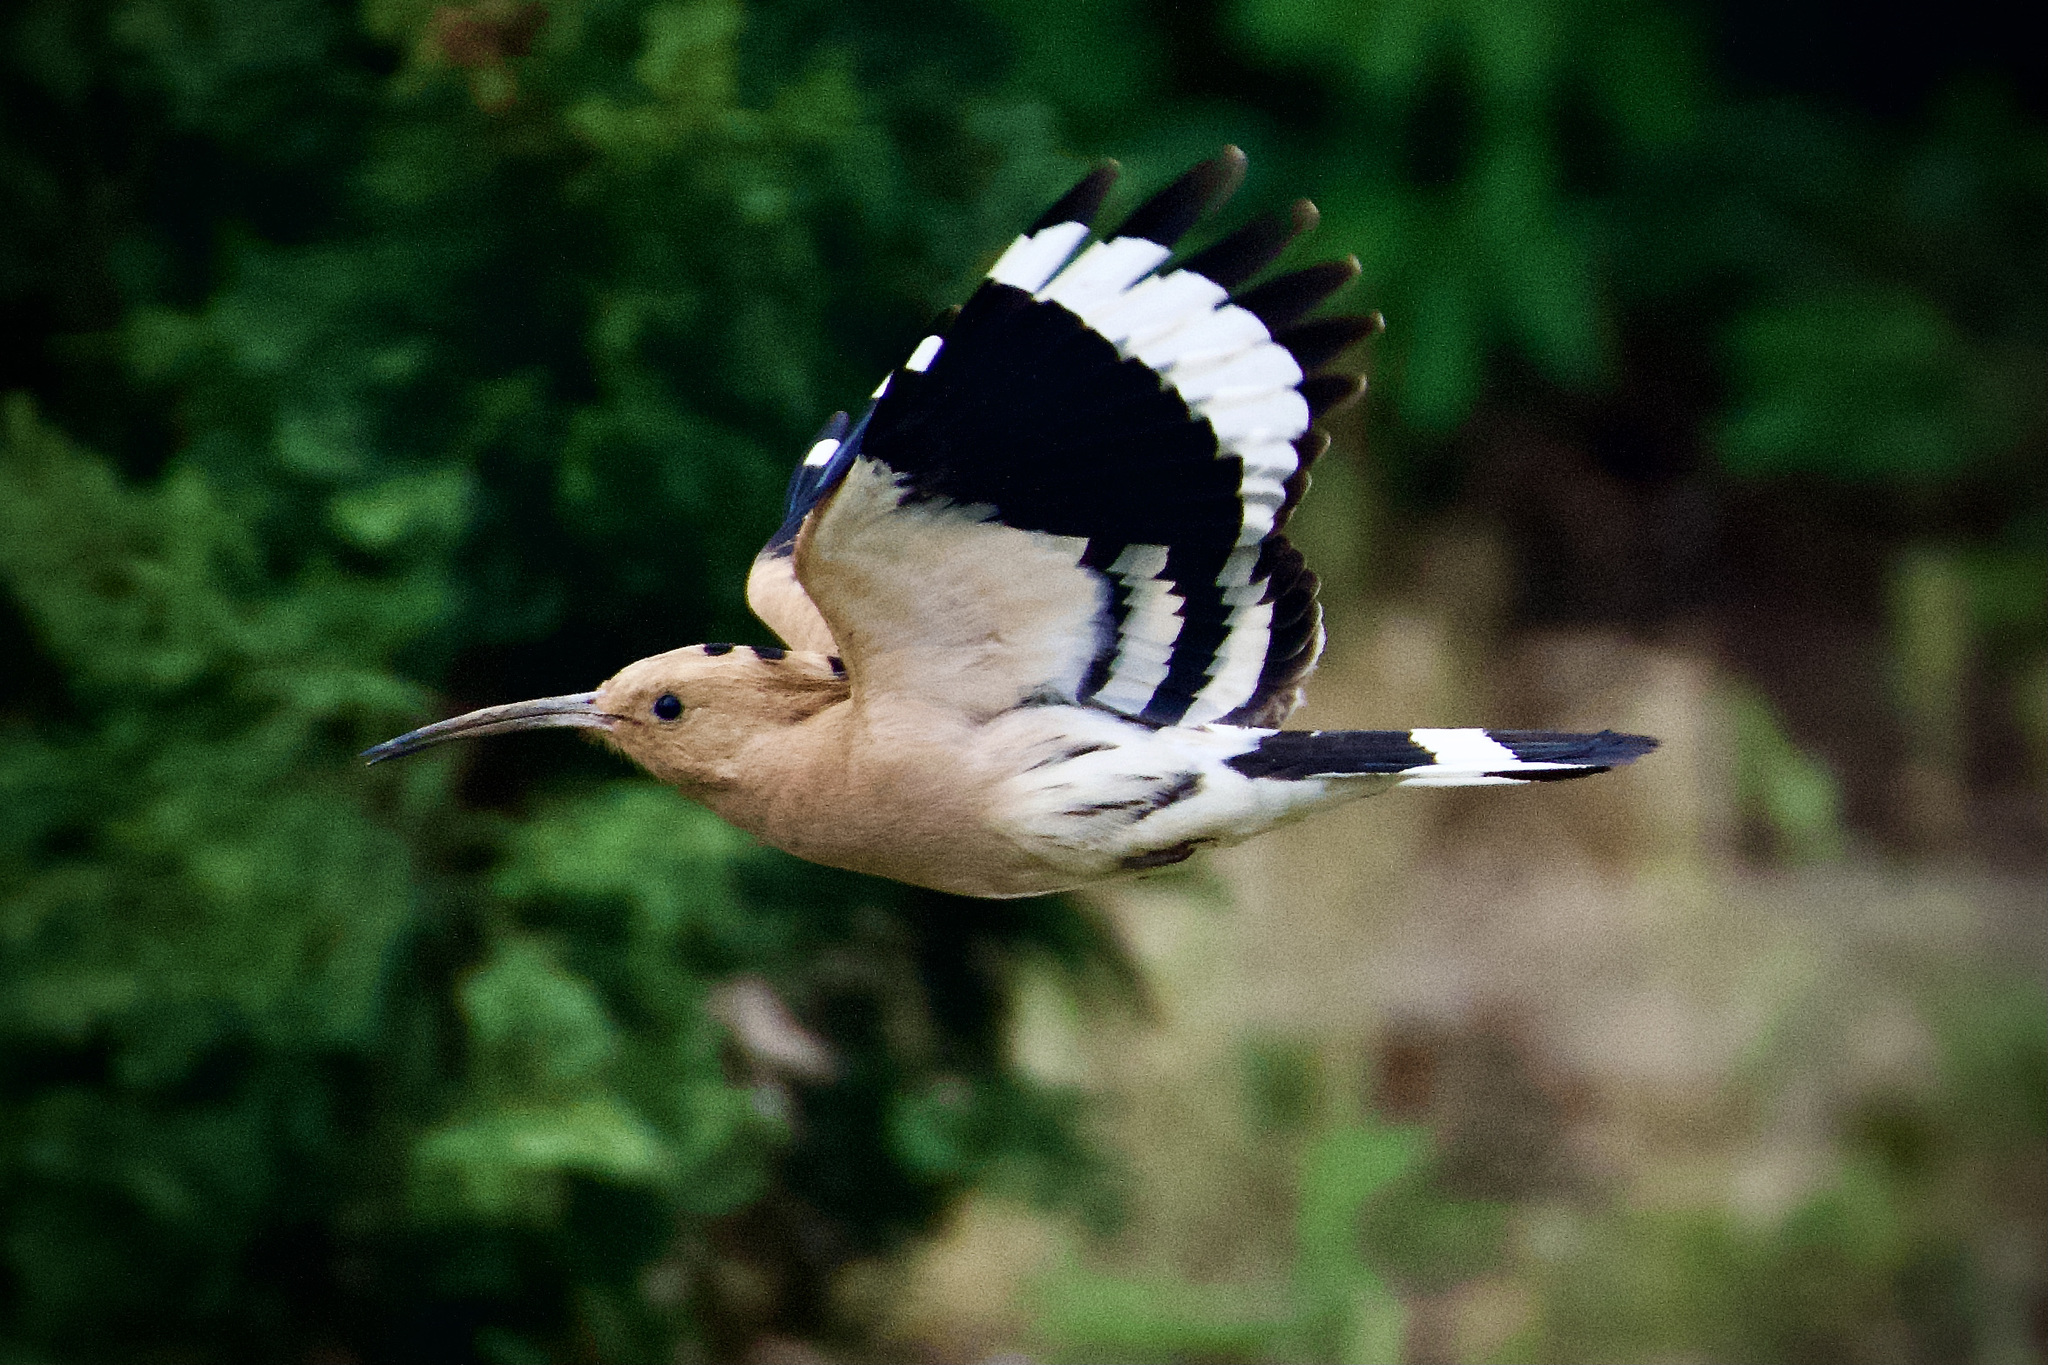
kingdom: Animalia
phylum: Chordata
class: Aves
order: Bucerotiformes
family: Upupidae
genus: Upupa
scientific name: Upupa epops
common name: Eurasian hoopoe
